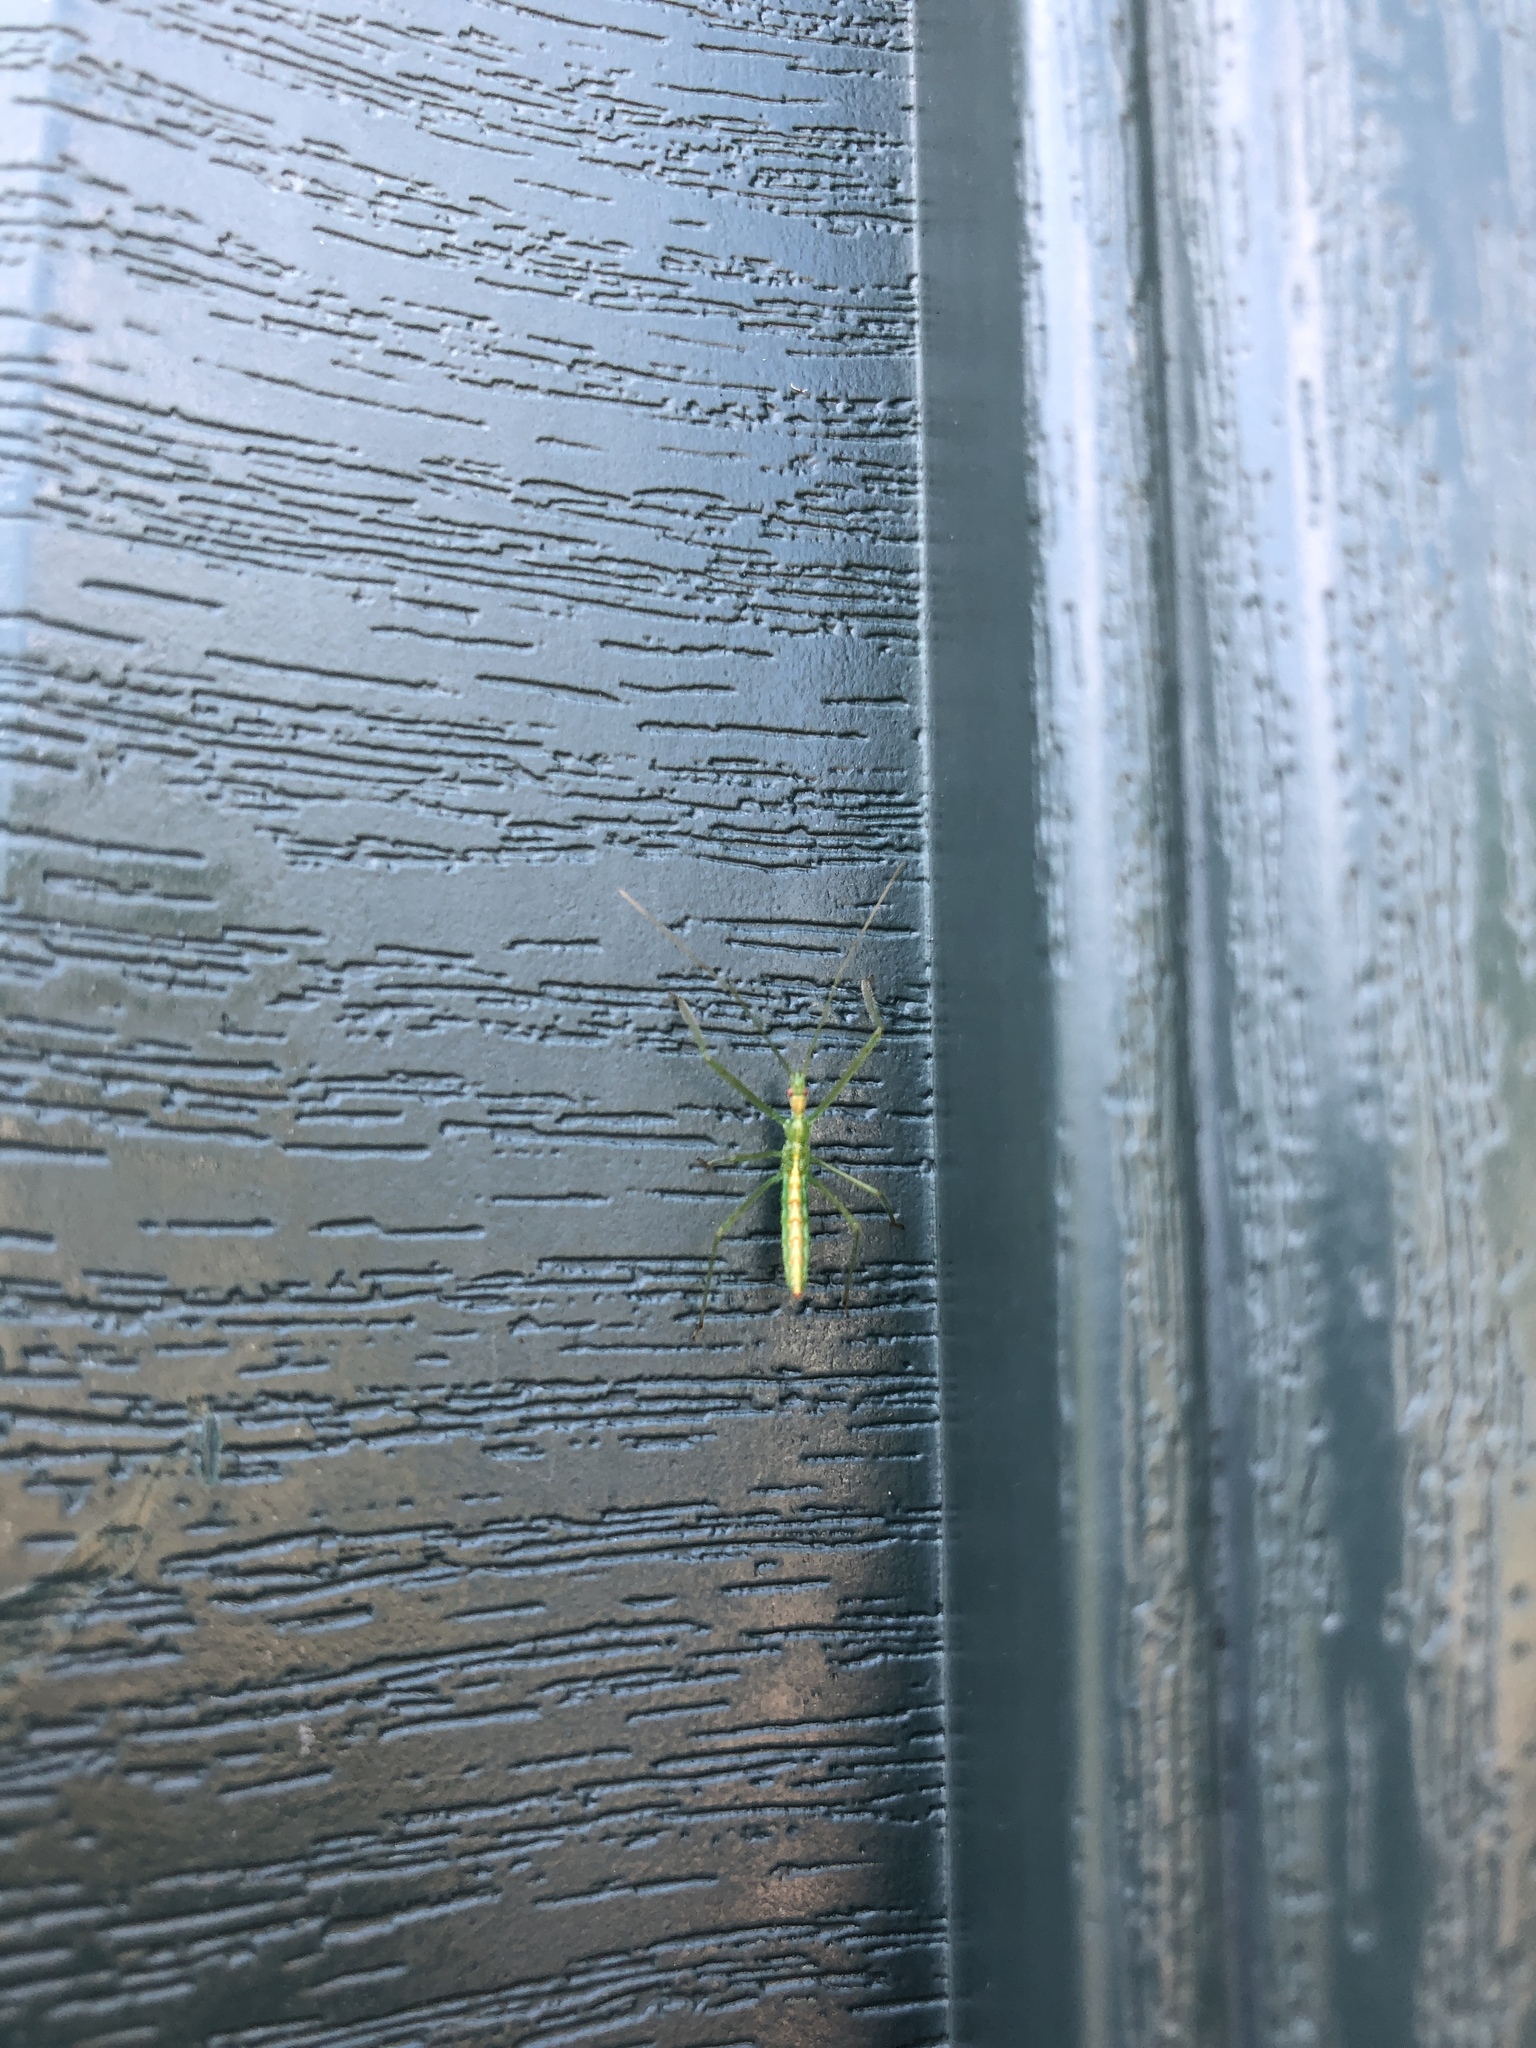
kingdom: Animalia
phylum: Arthropoda
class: Insecta
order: Hemiptera
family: Reduviidae
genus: Zelus
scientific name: Zelus luridus
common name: Pale green assassin bug
